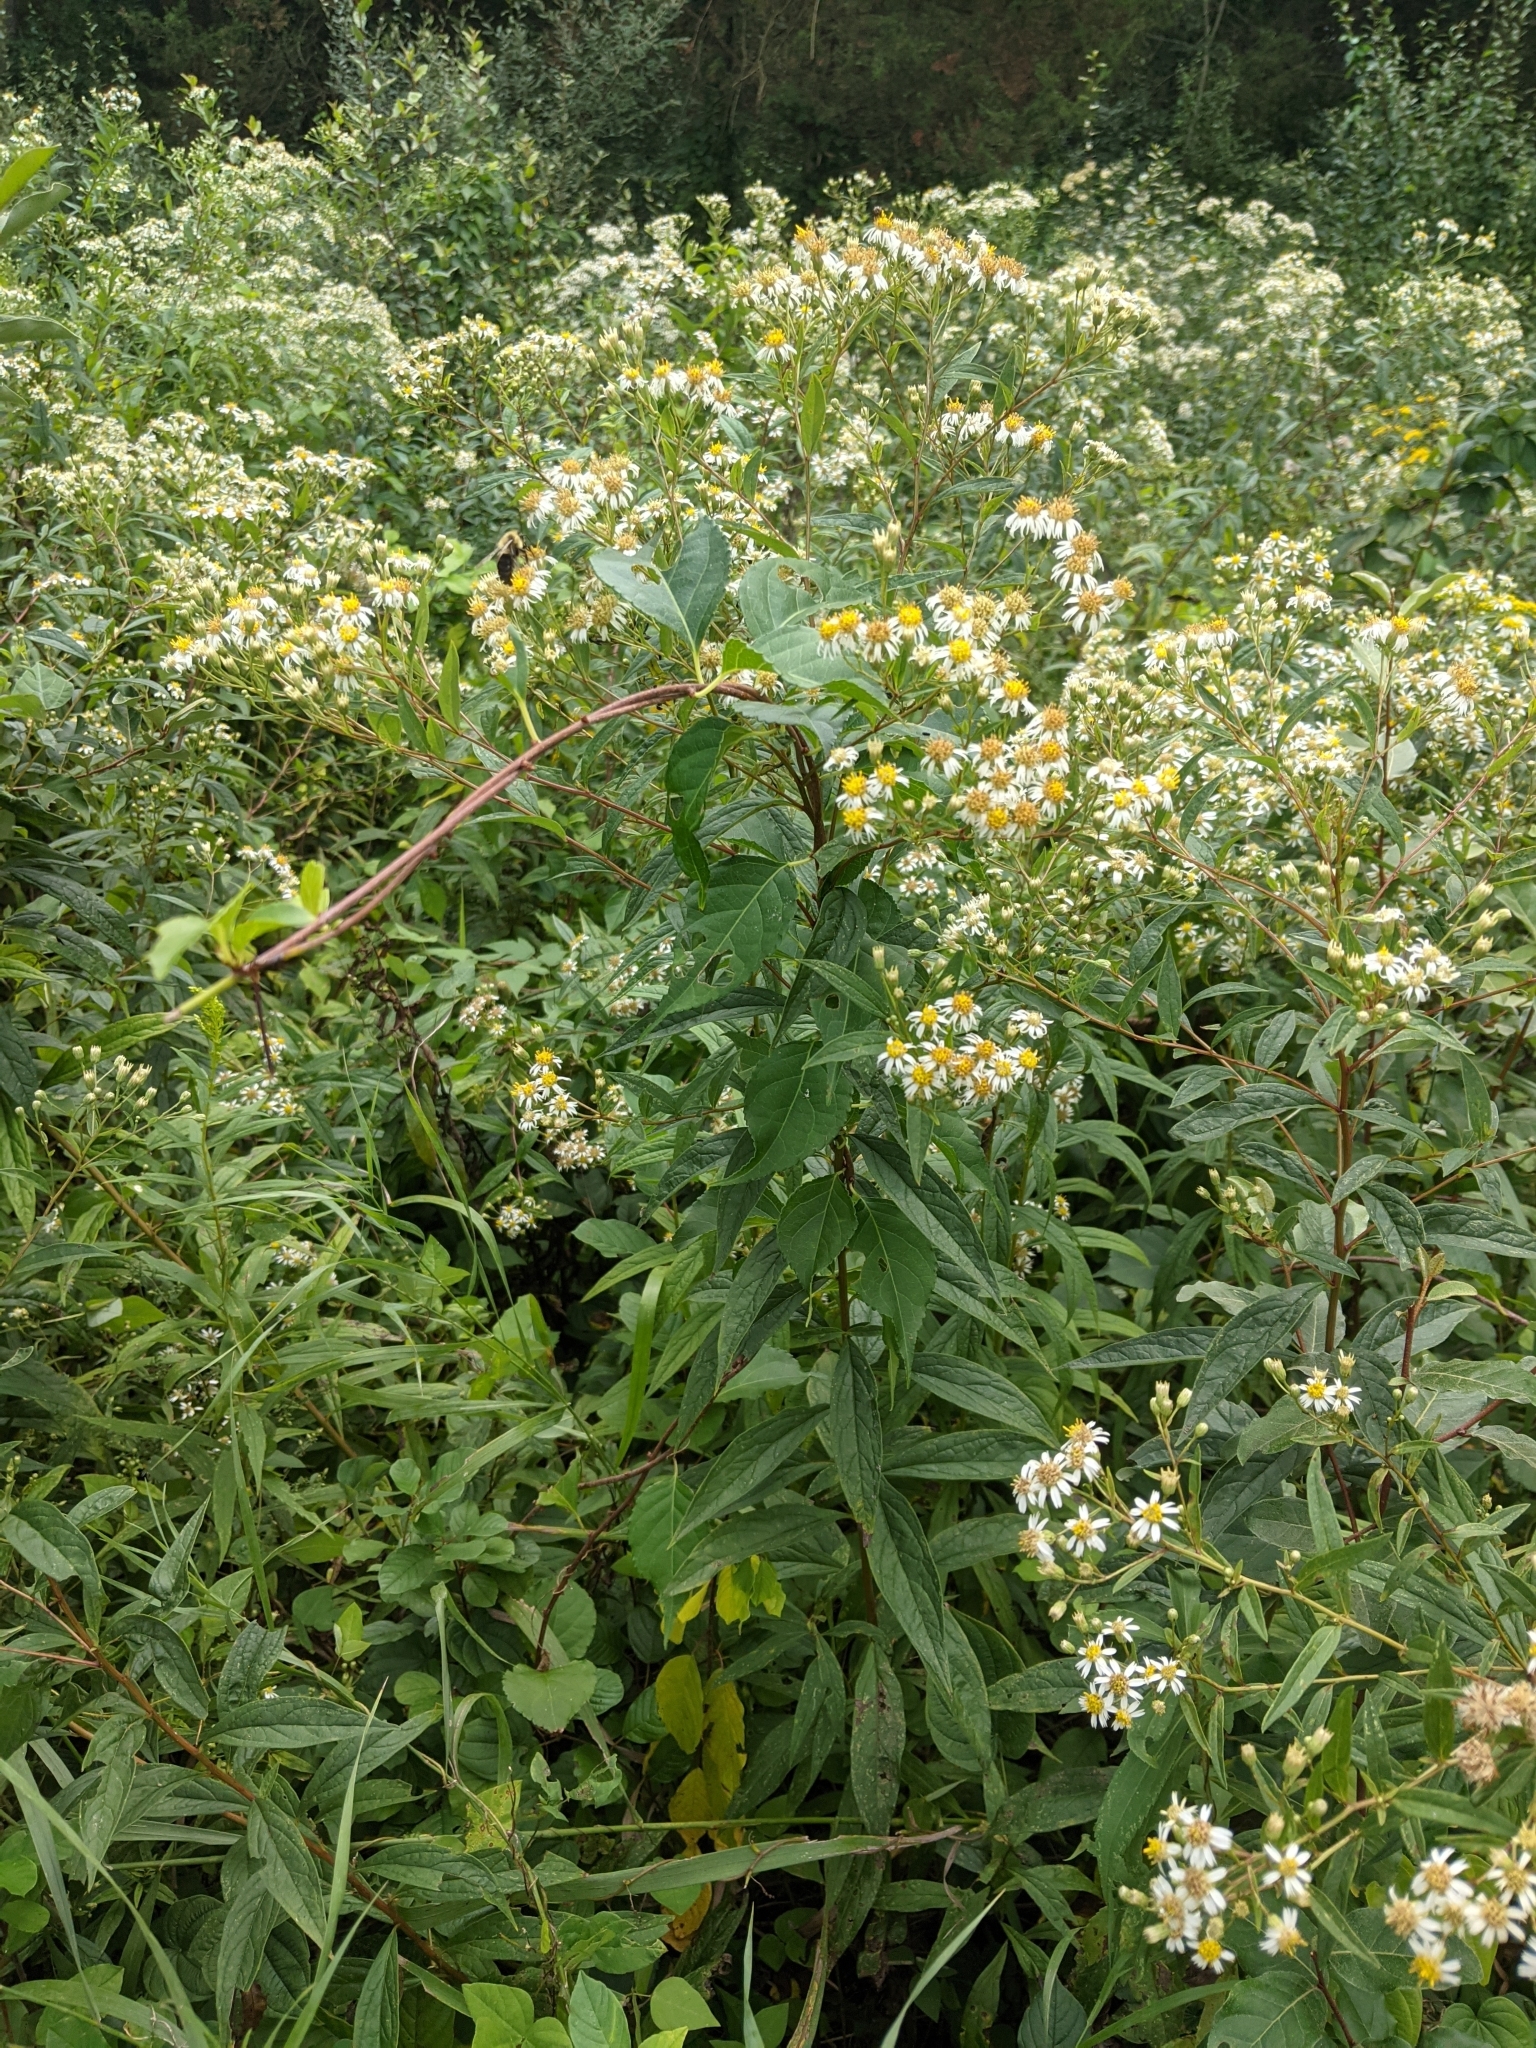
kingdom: Plantae
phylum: Tracheophyta
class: Magnoliopsida
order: Asterales
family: Asteraceae
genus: Doellingeria
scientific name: Doellingeria umbellata
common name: Flat-top white aster
